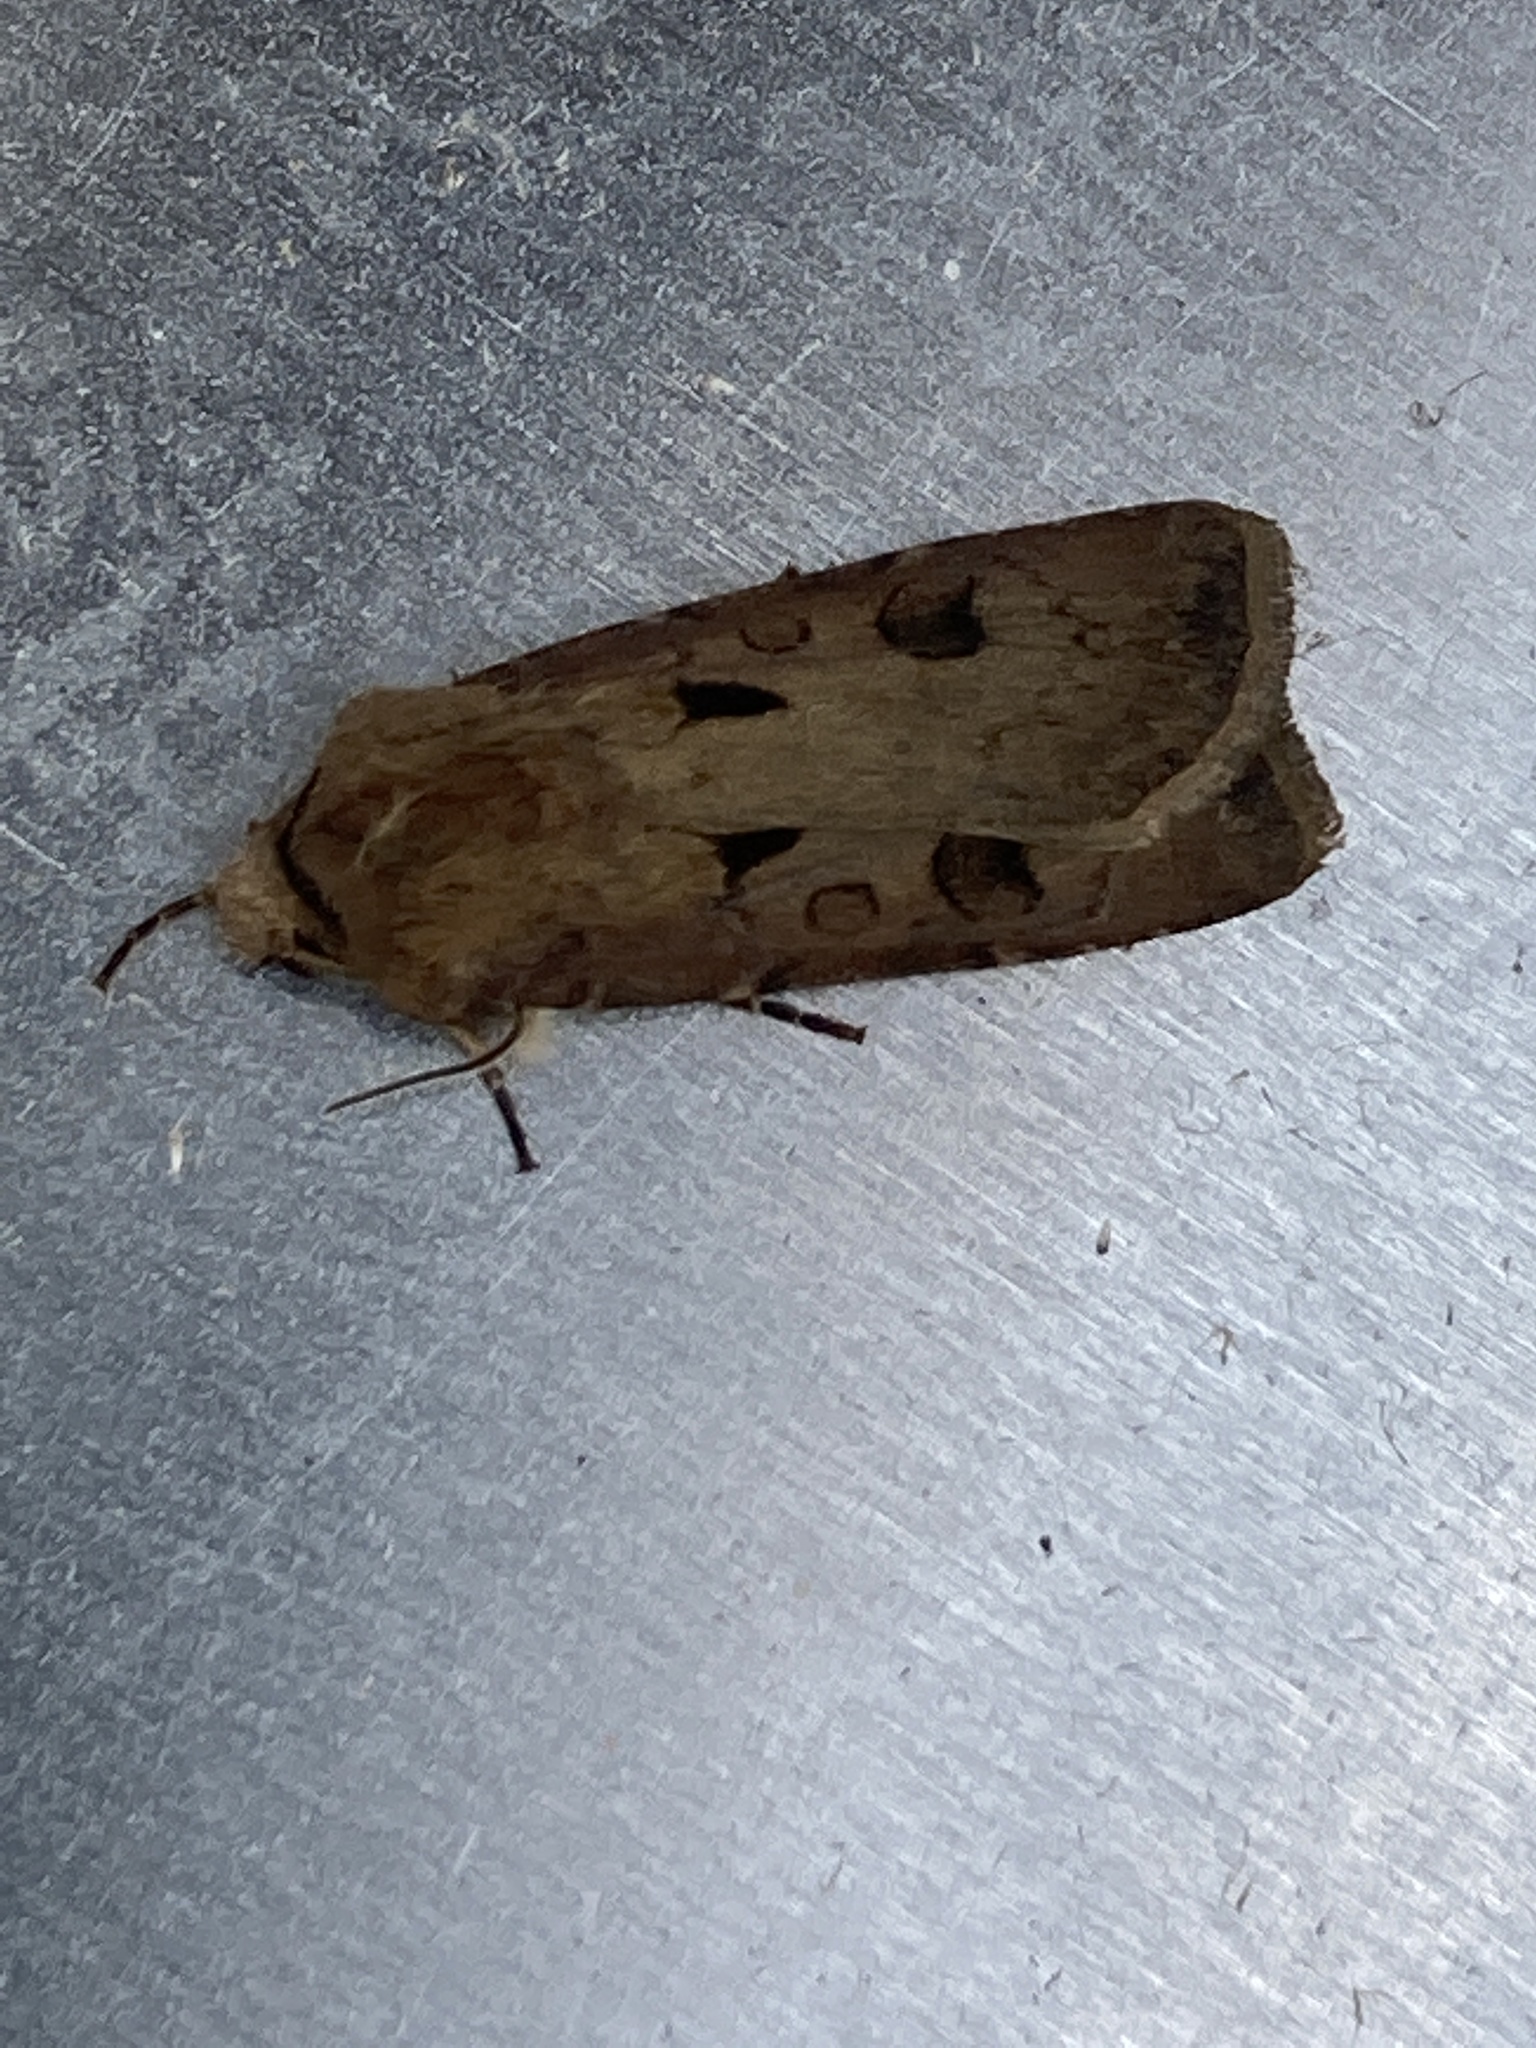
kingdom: Animalia
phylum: Arthropoda
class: Insecta
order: Lepidoptera
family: Noctuidae
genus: Agrotis
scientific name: Agrotis exclamationis
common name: Heart and dart
